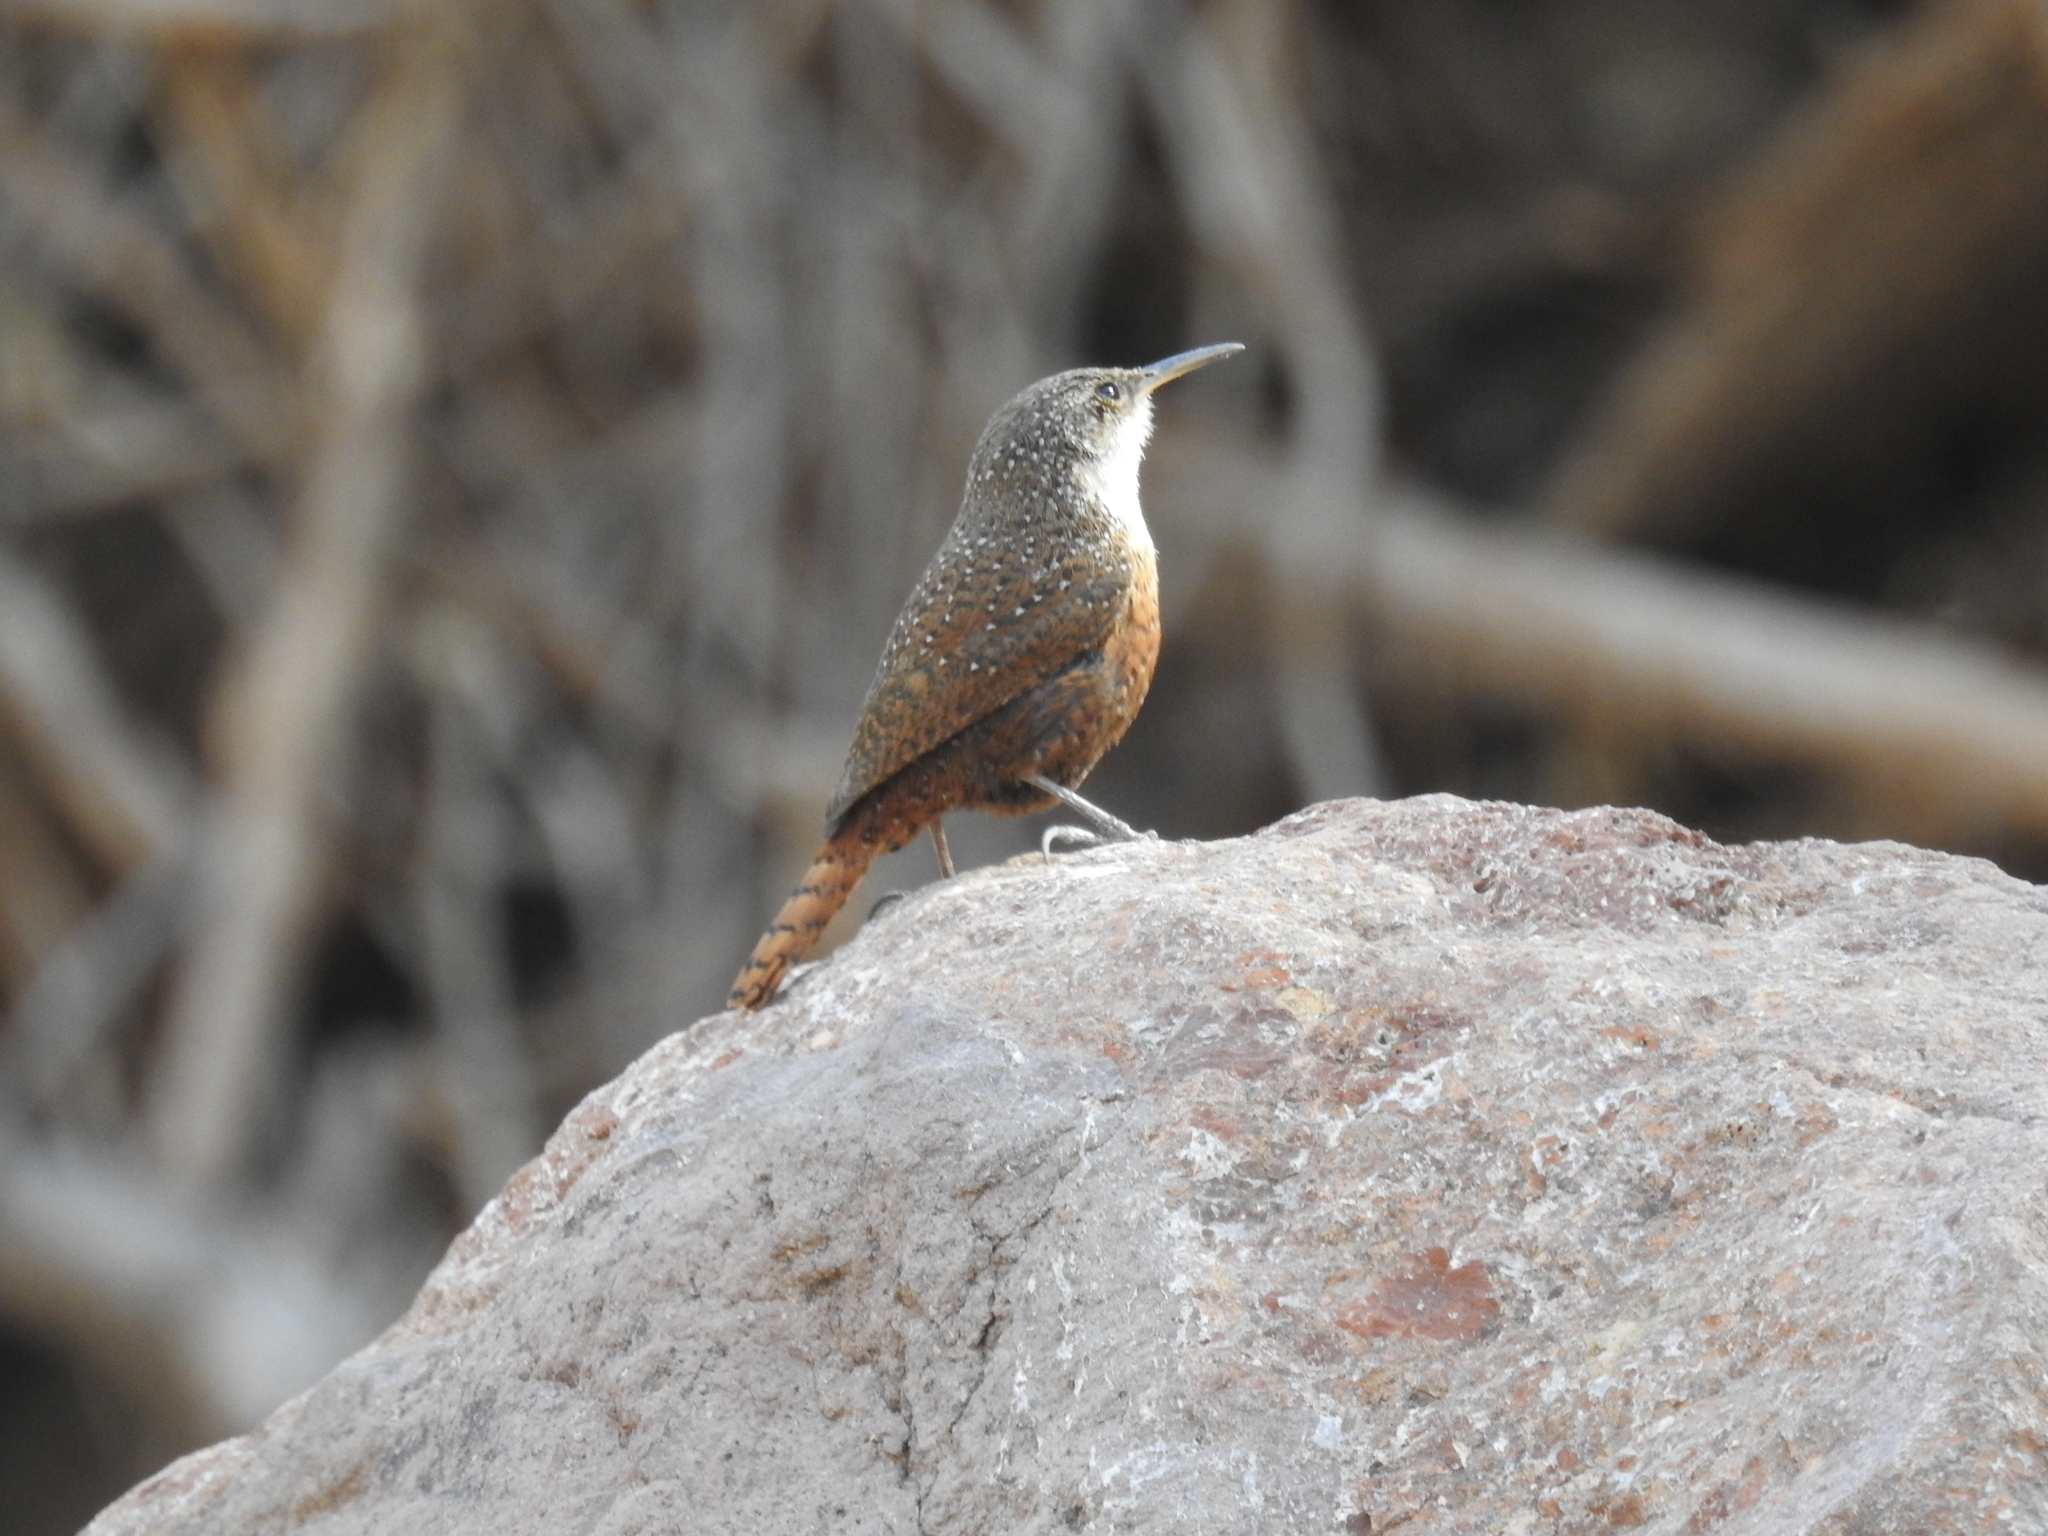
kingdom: Animalia
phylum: Chordata
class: Aves
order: Passeriformes
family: Troglodytidae
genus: Catherpes
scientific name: Catherpes mexicanus
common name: Canyon wren
